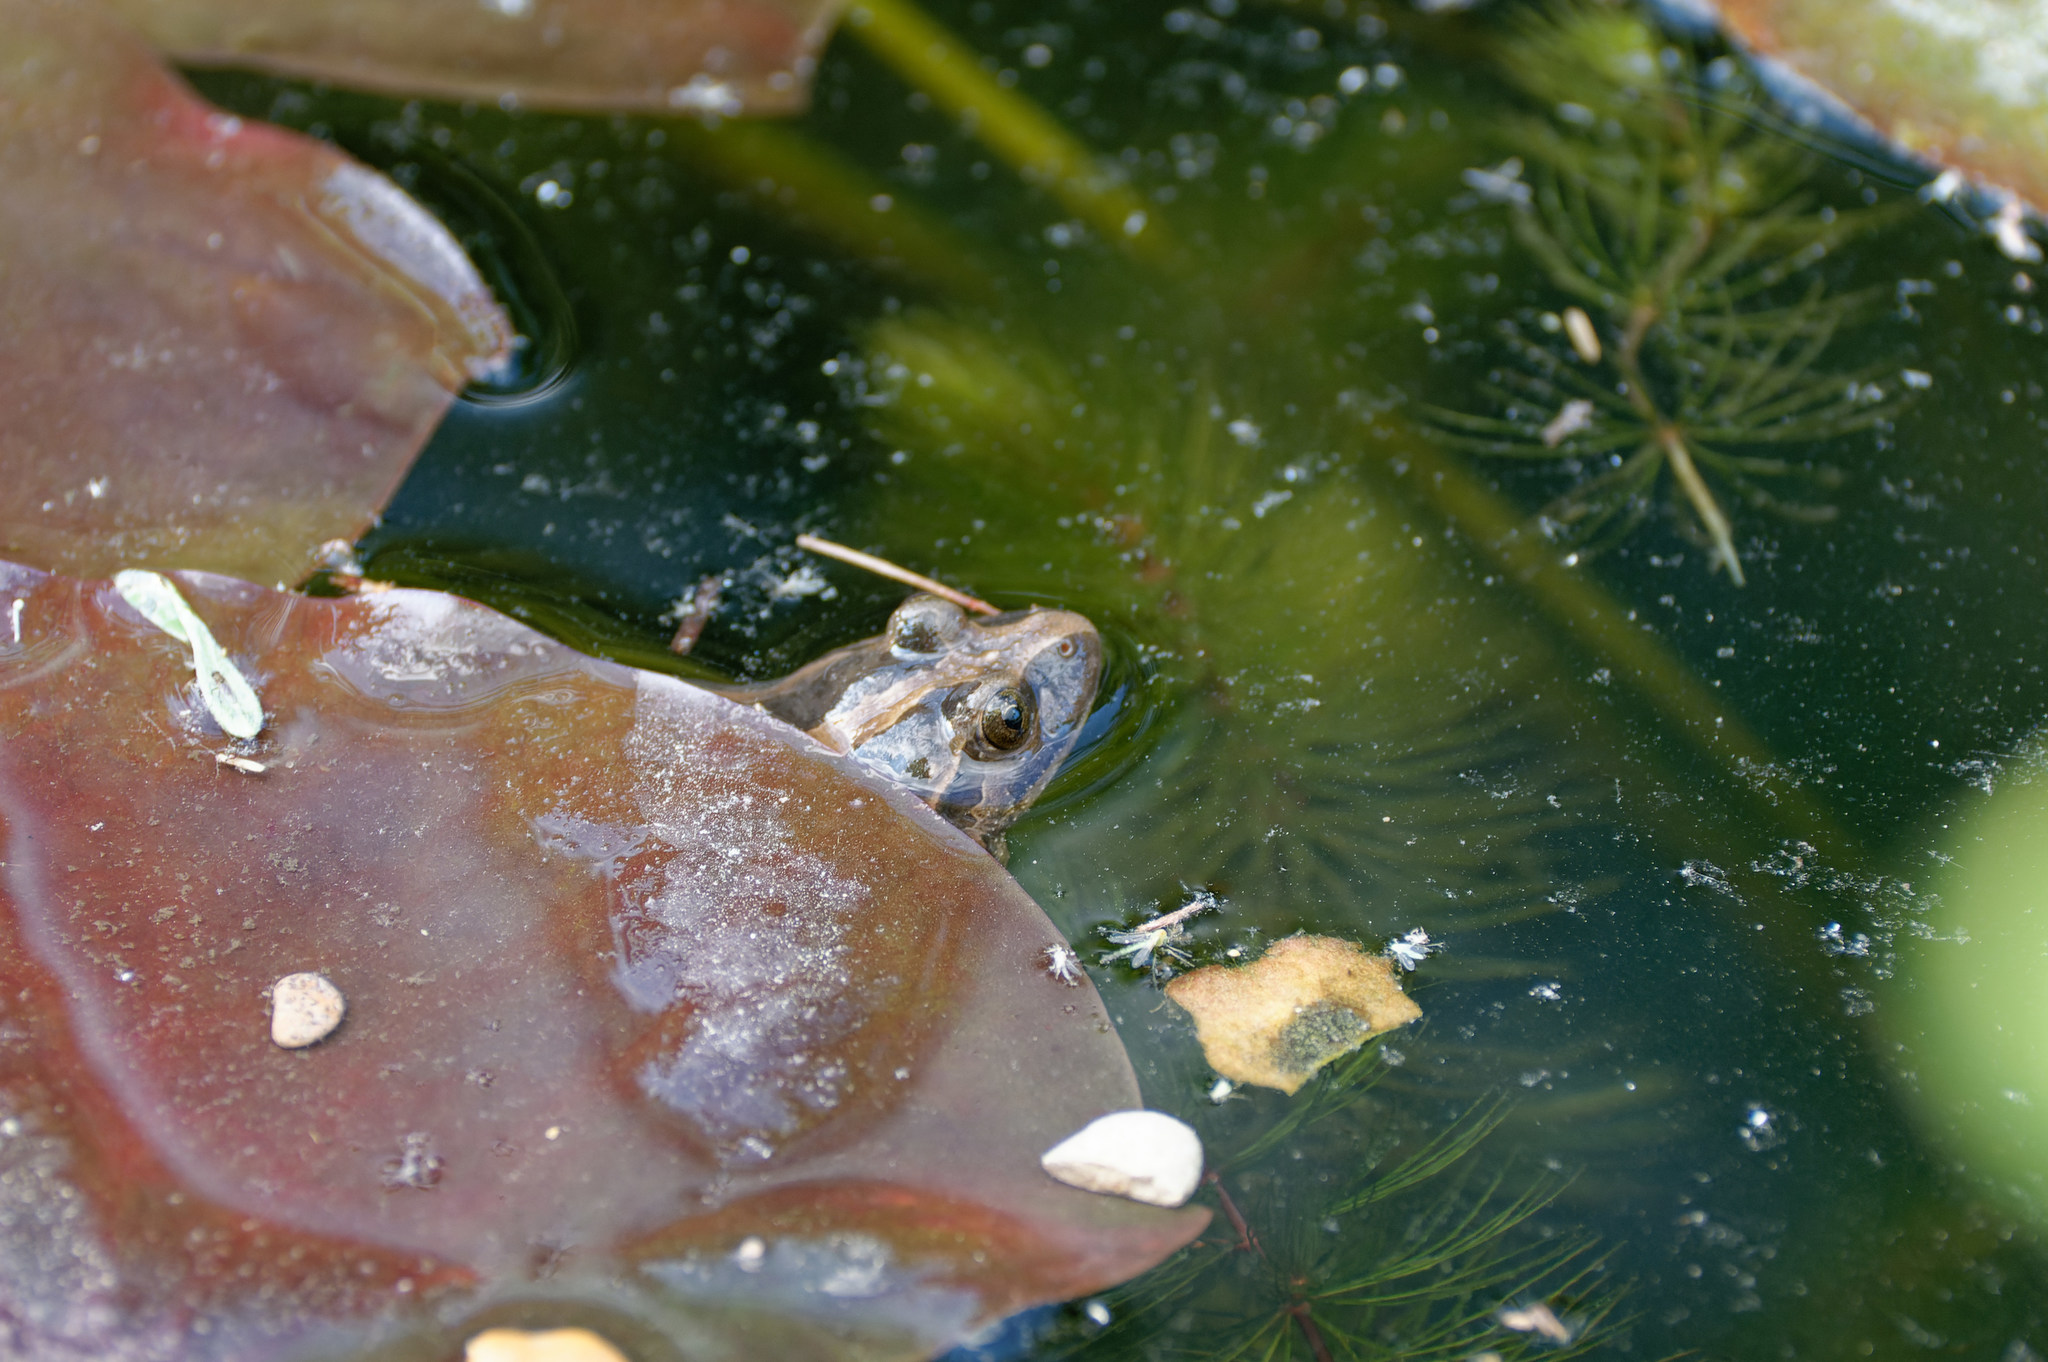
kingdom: Animalia
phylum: Chordata
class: Amphibia
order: Anura
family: Alytidae
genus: Discoglossus
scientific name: Discoglossus pictus
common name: Painted frog
